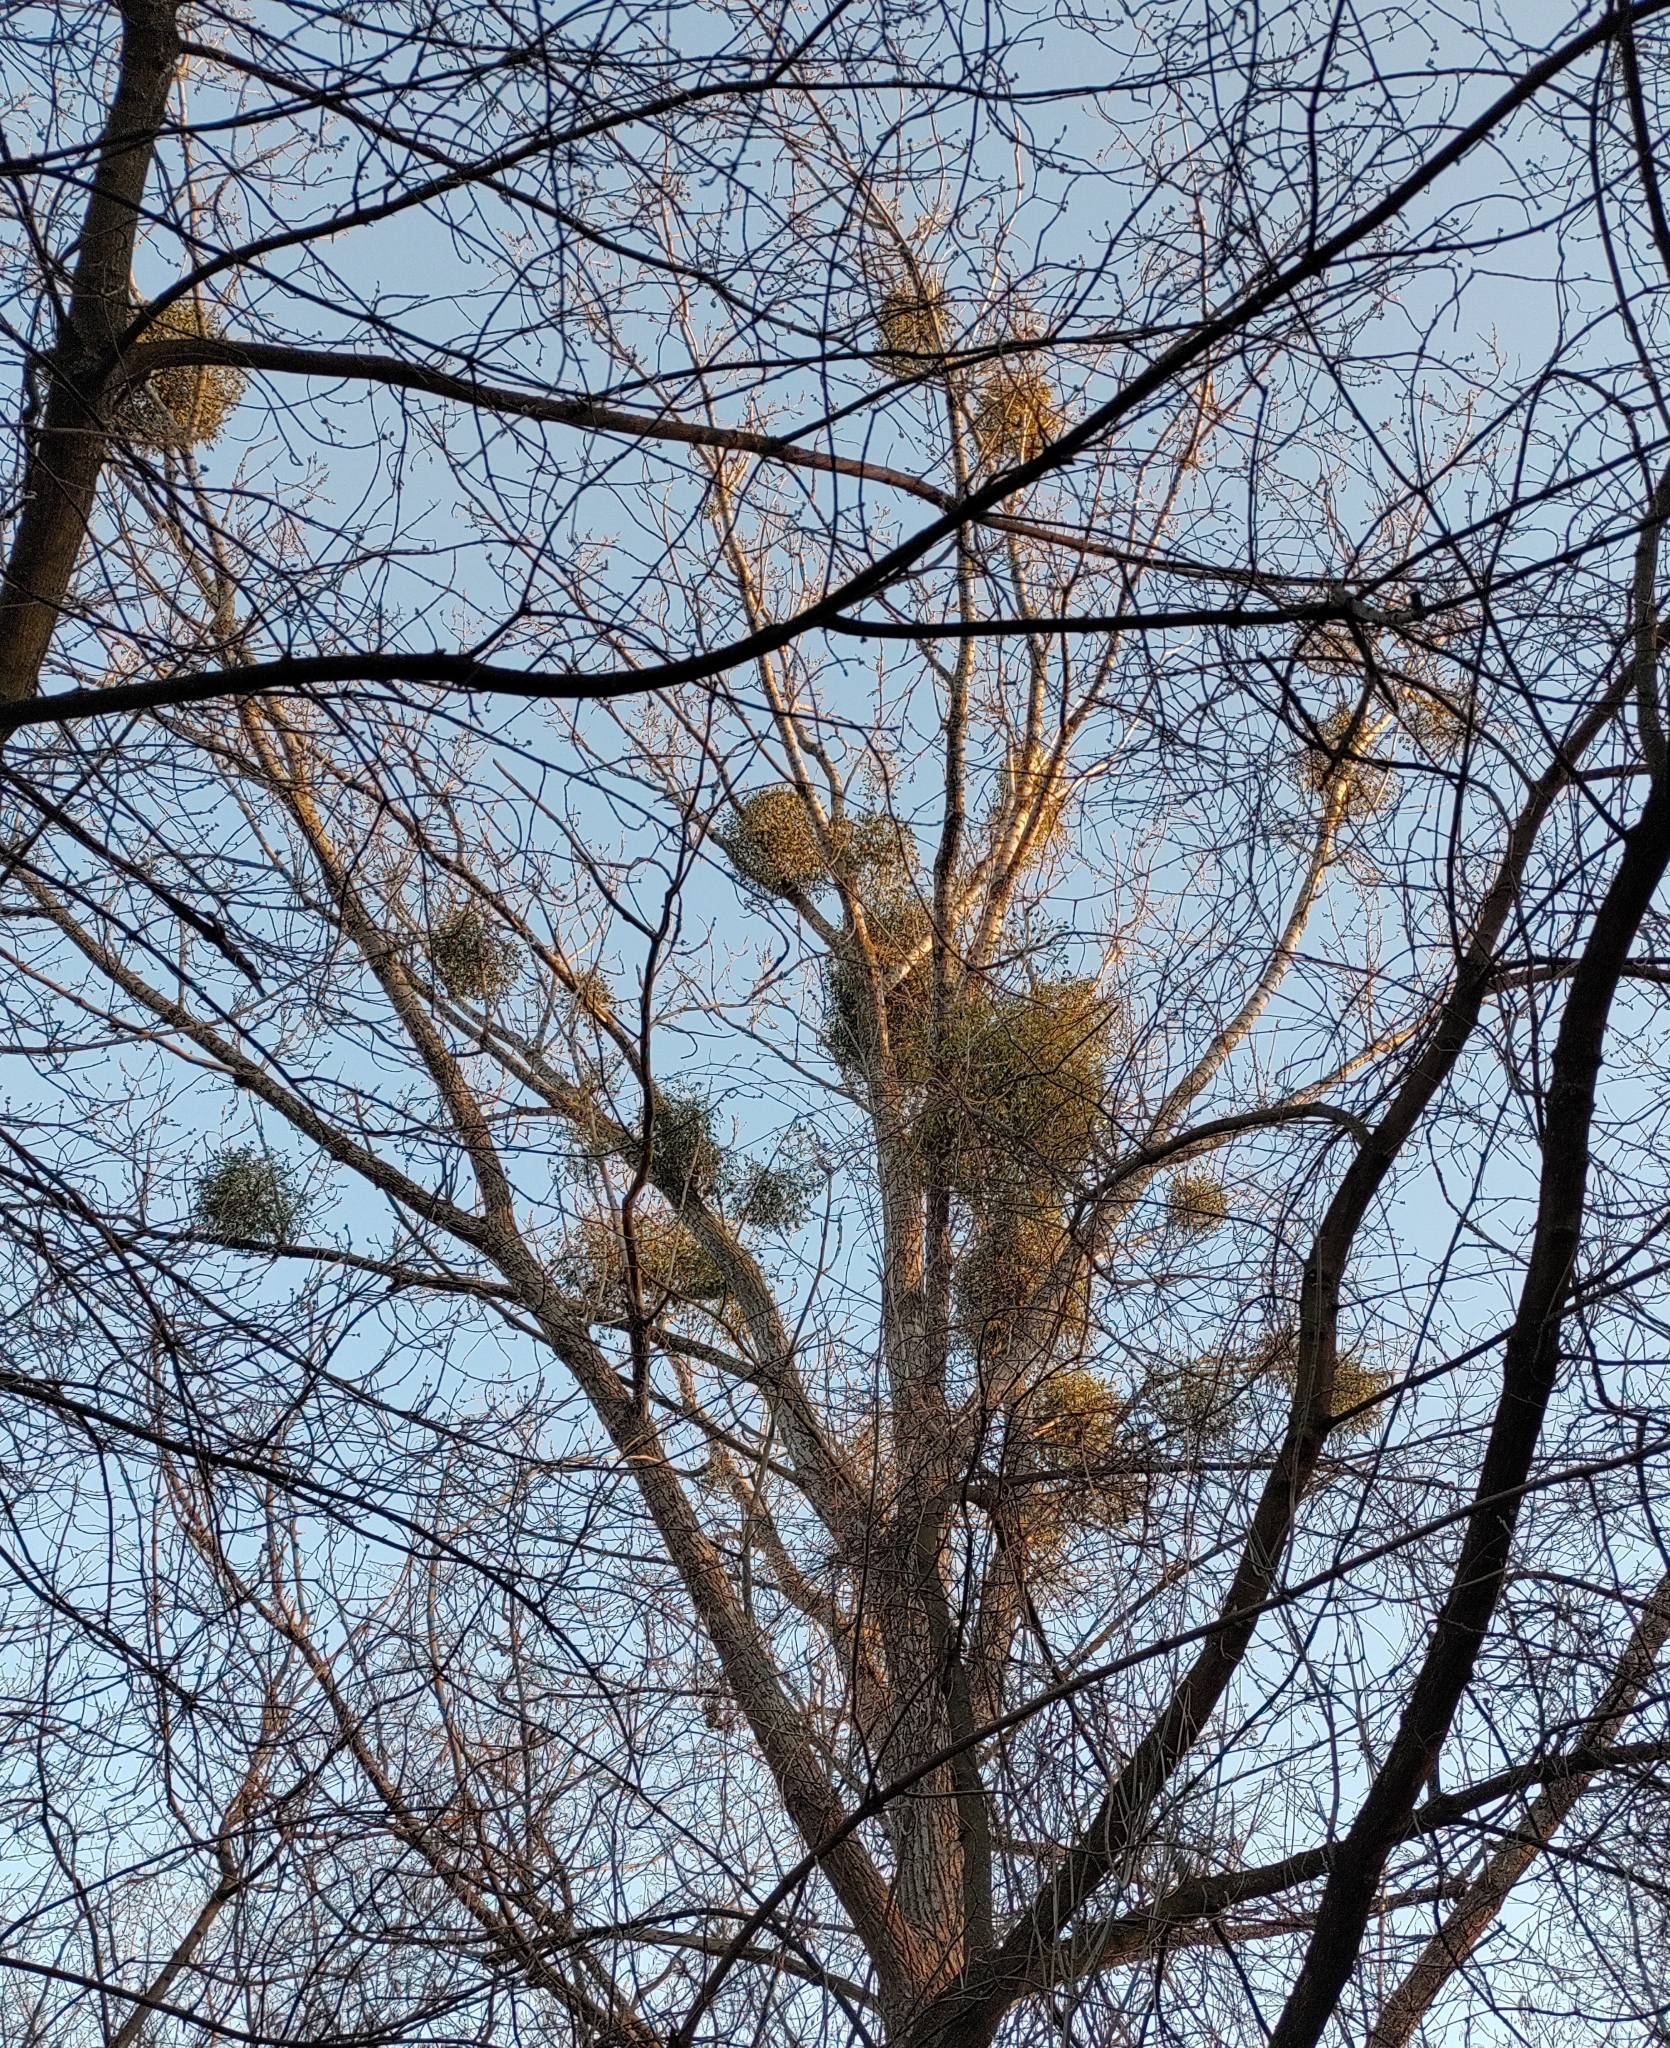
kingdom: Plantae
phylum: Tracheophyta
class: Magnoliopsida
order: Santalales
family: Viscaceae
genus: Viscum
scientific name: Viscum album
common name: Mistletoe
